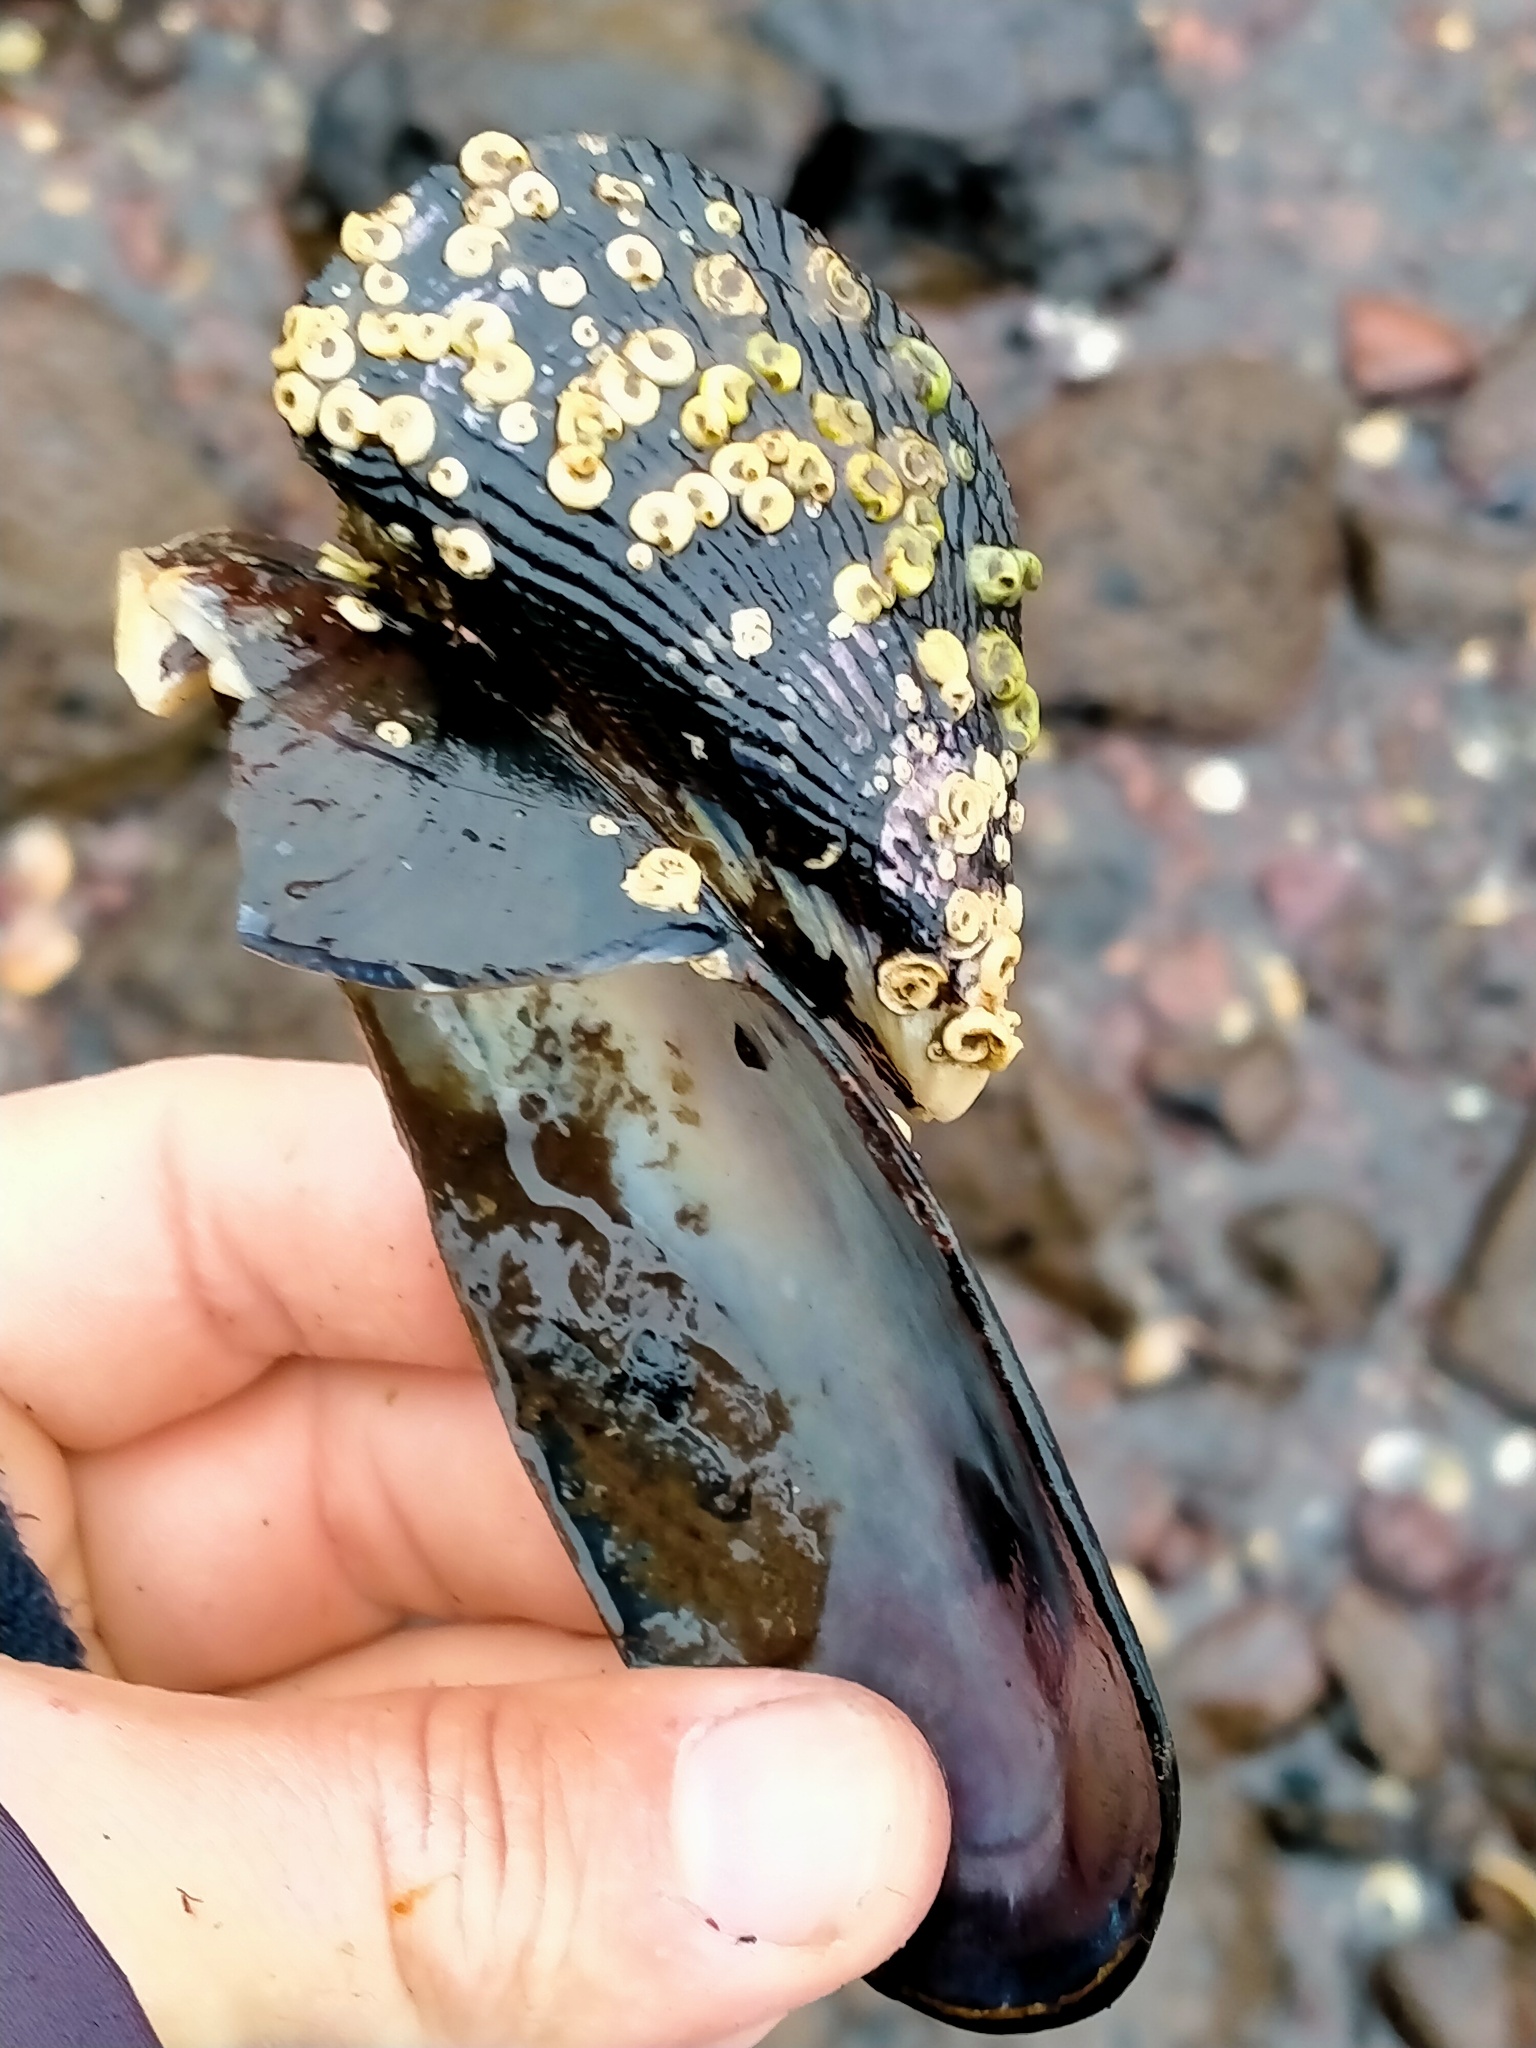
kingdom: Animalia
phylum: Mollusca
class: Bivalvia
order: Mytilida
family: Mytilidae
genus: Mytilus
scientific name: Mytilus planulatus
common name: Australian mussel
